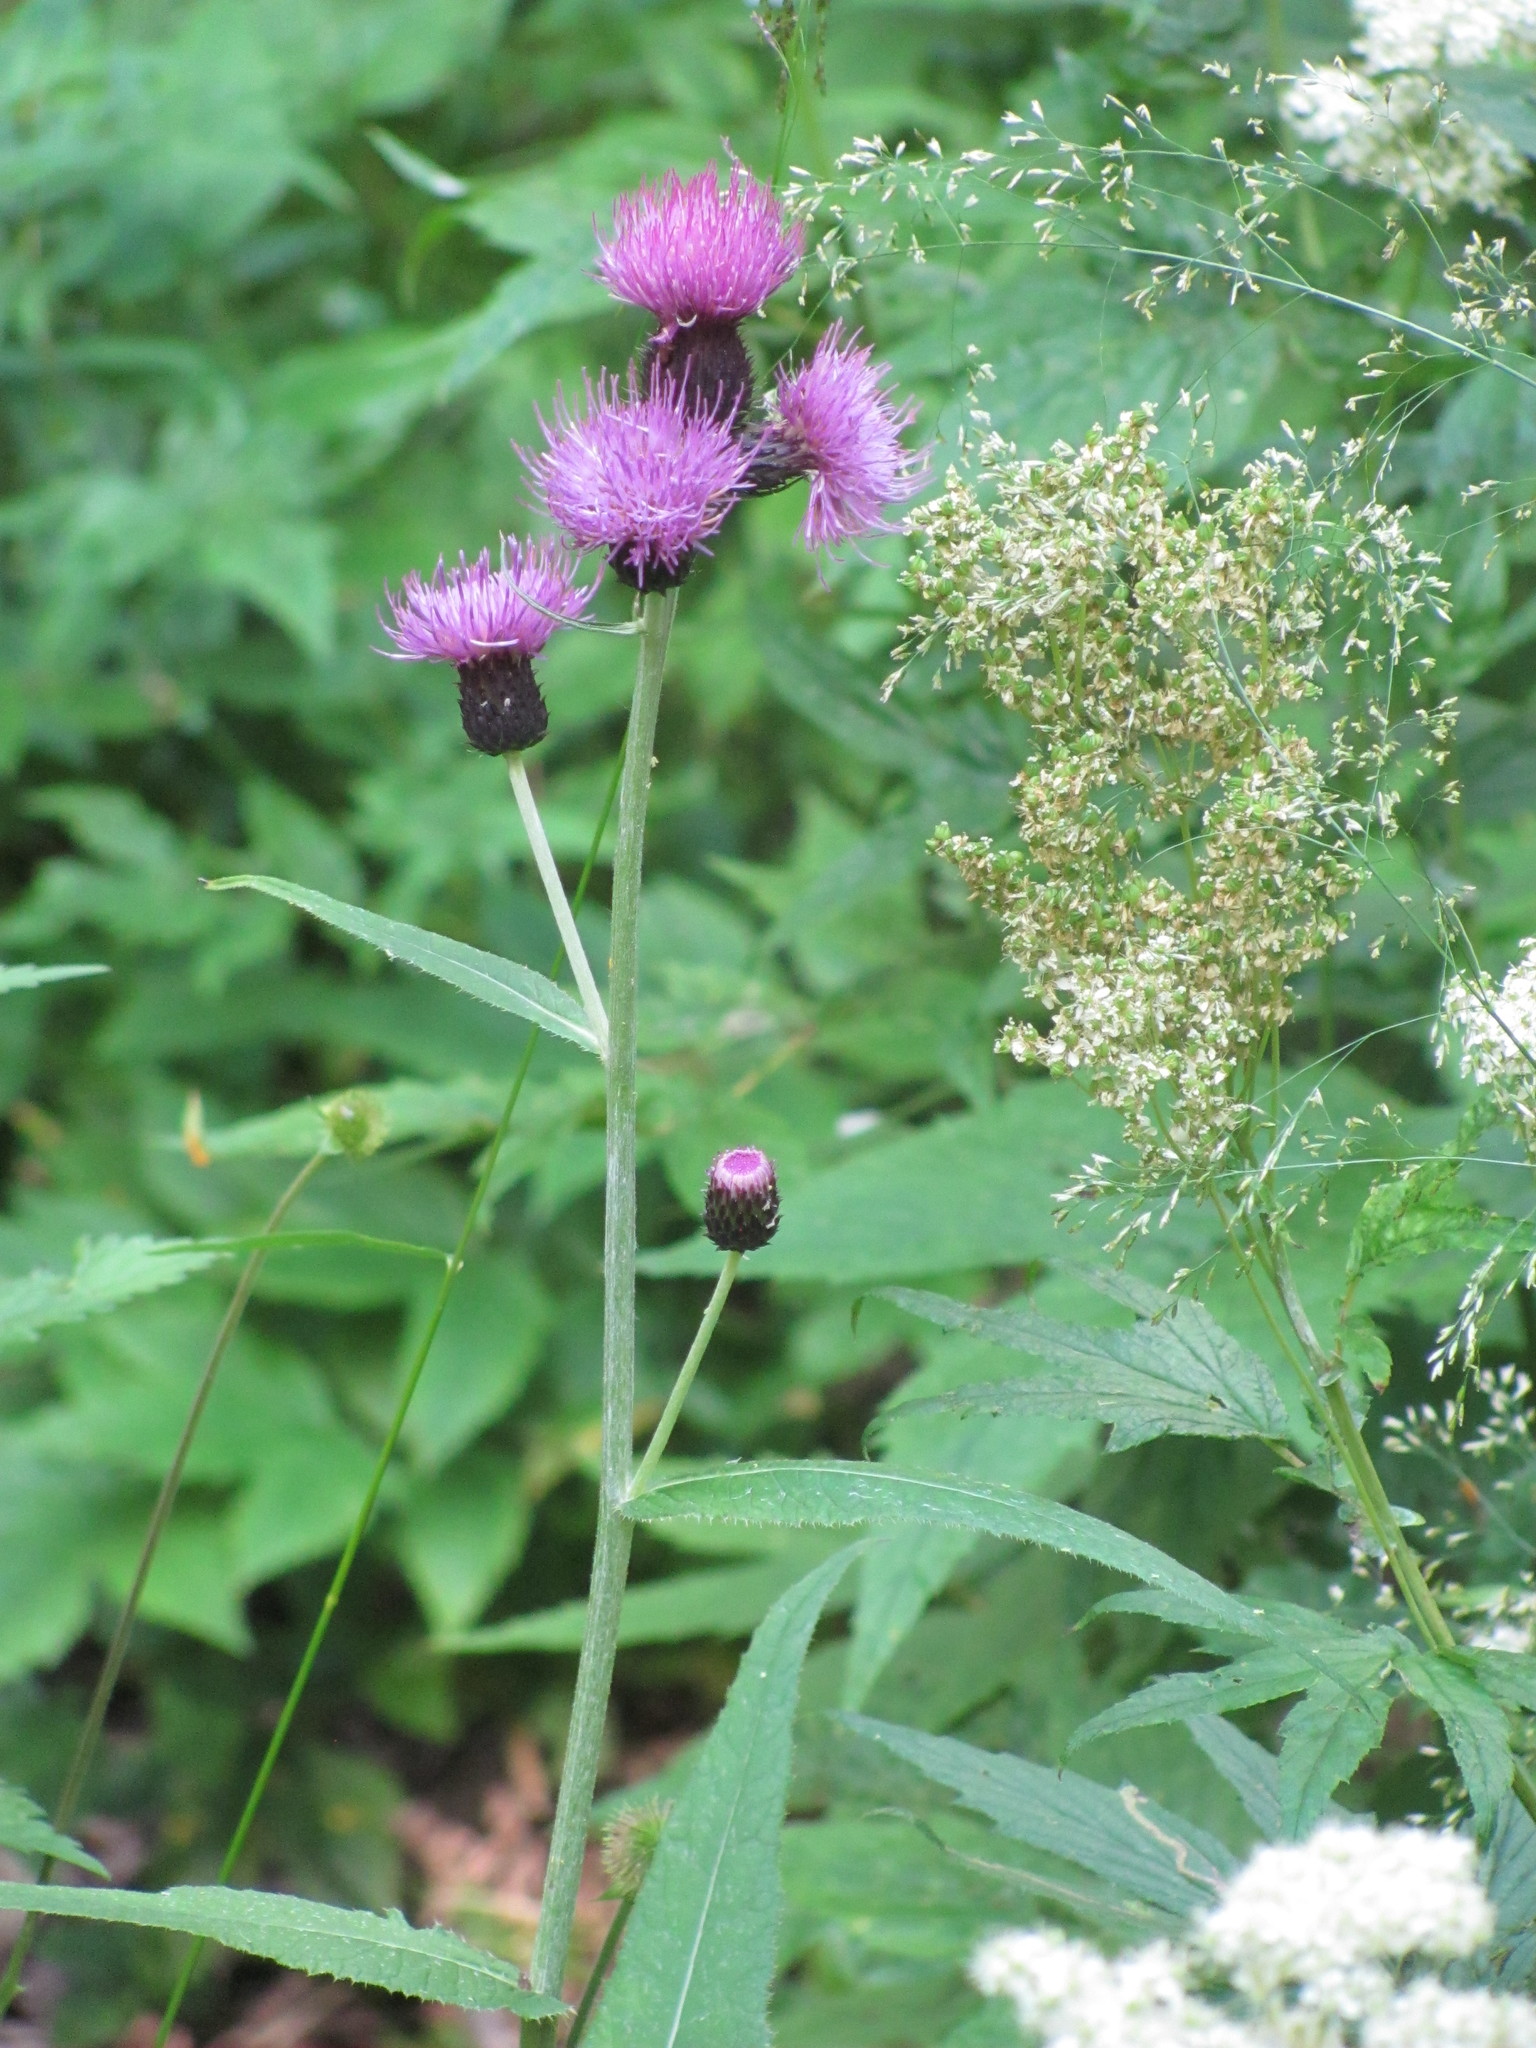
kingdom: Plantae
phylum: Tracheophyta
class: Magnoliopsida
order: Asterales
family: Asteraceae
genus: Cirsium
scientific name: Cirsium heterophyllum
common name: Melancholy thistle
